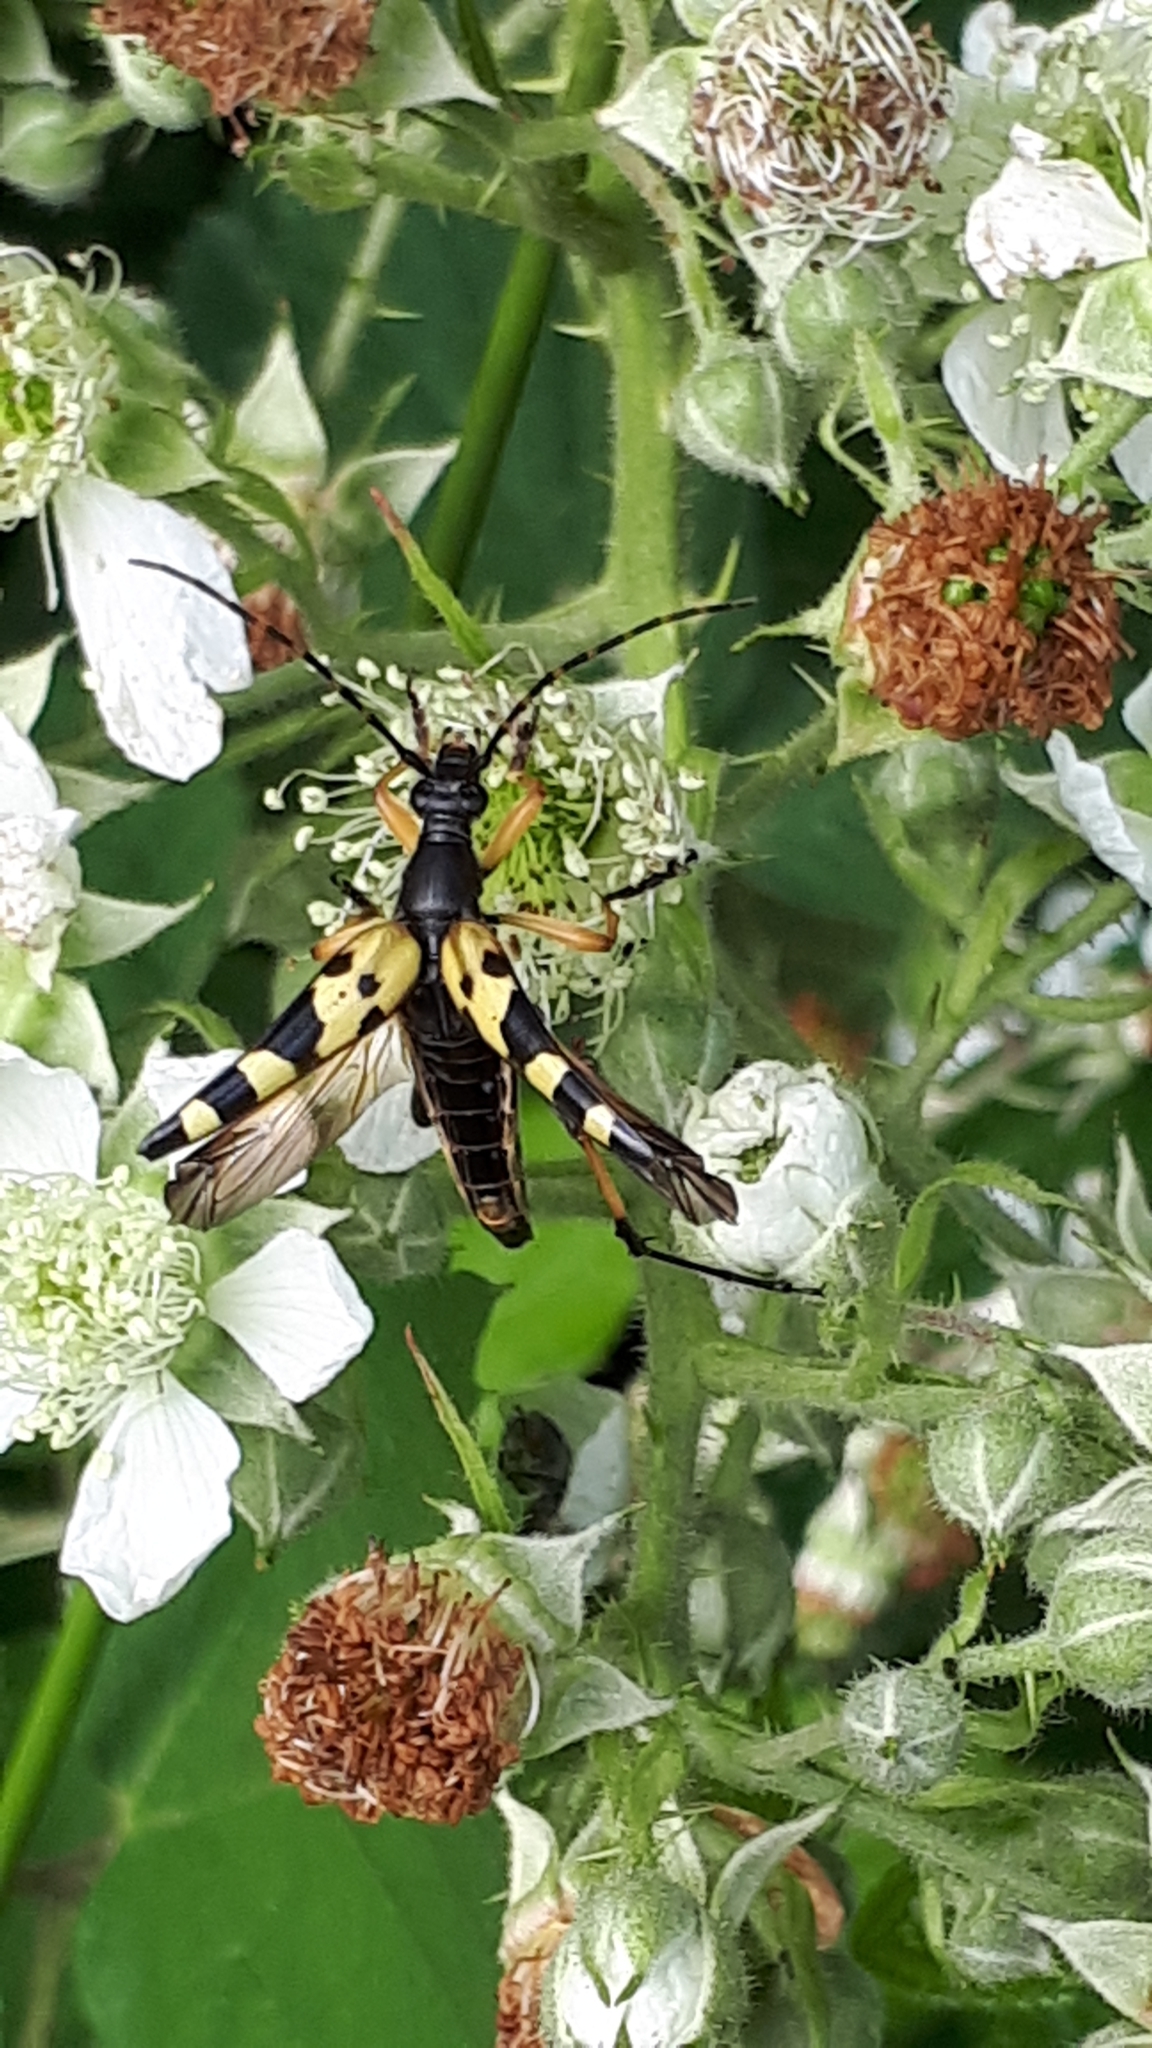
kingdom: Animalia
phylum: Arthropoda
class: Insecta
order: Coleoptera
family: Cerambycidae
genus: Rutpela
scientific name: Rutpela maculata
